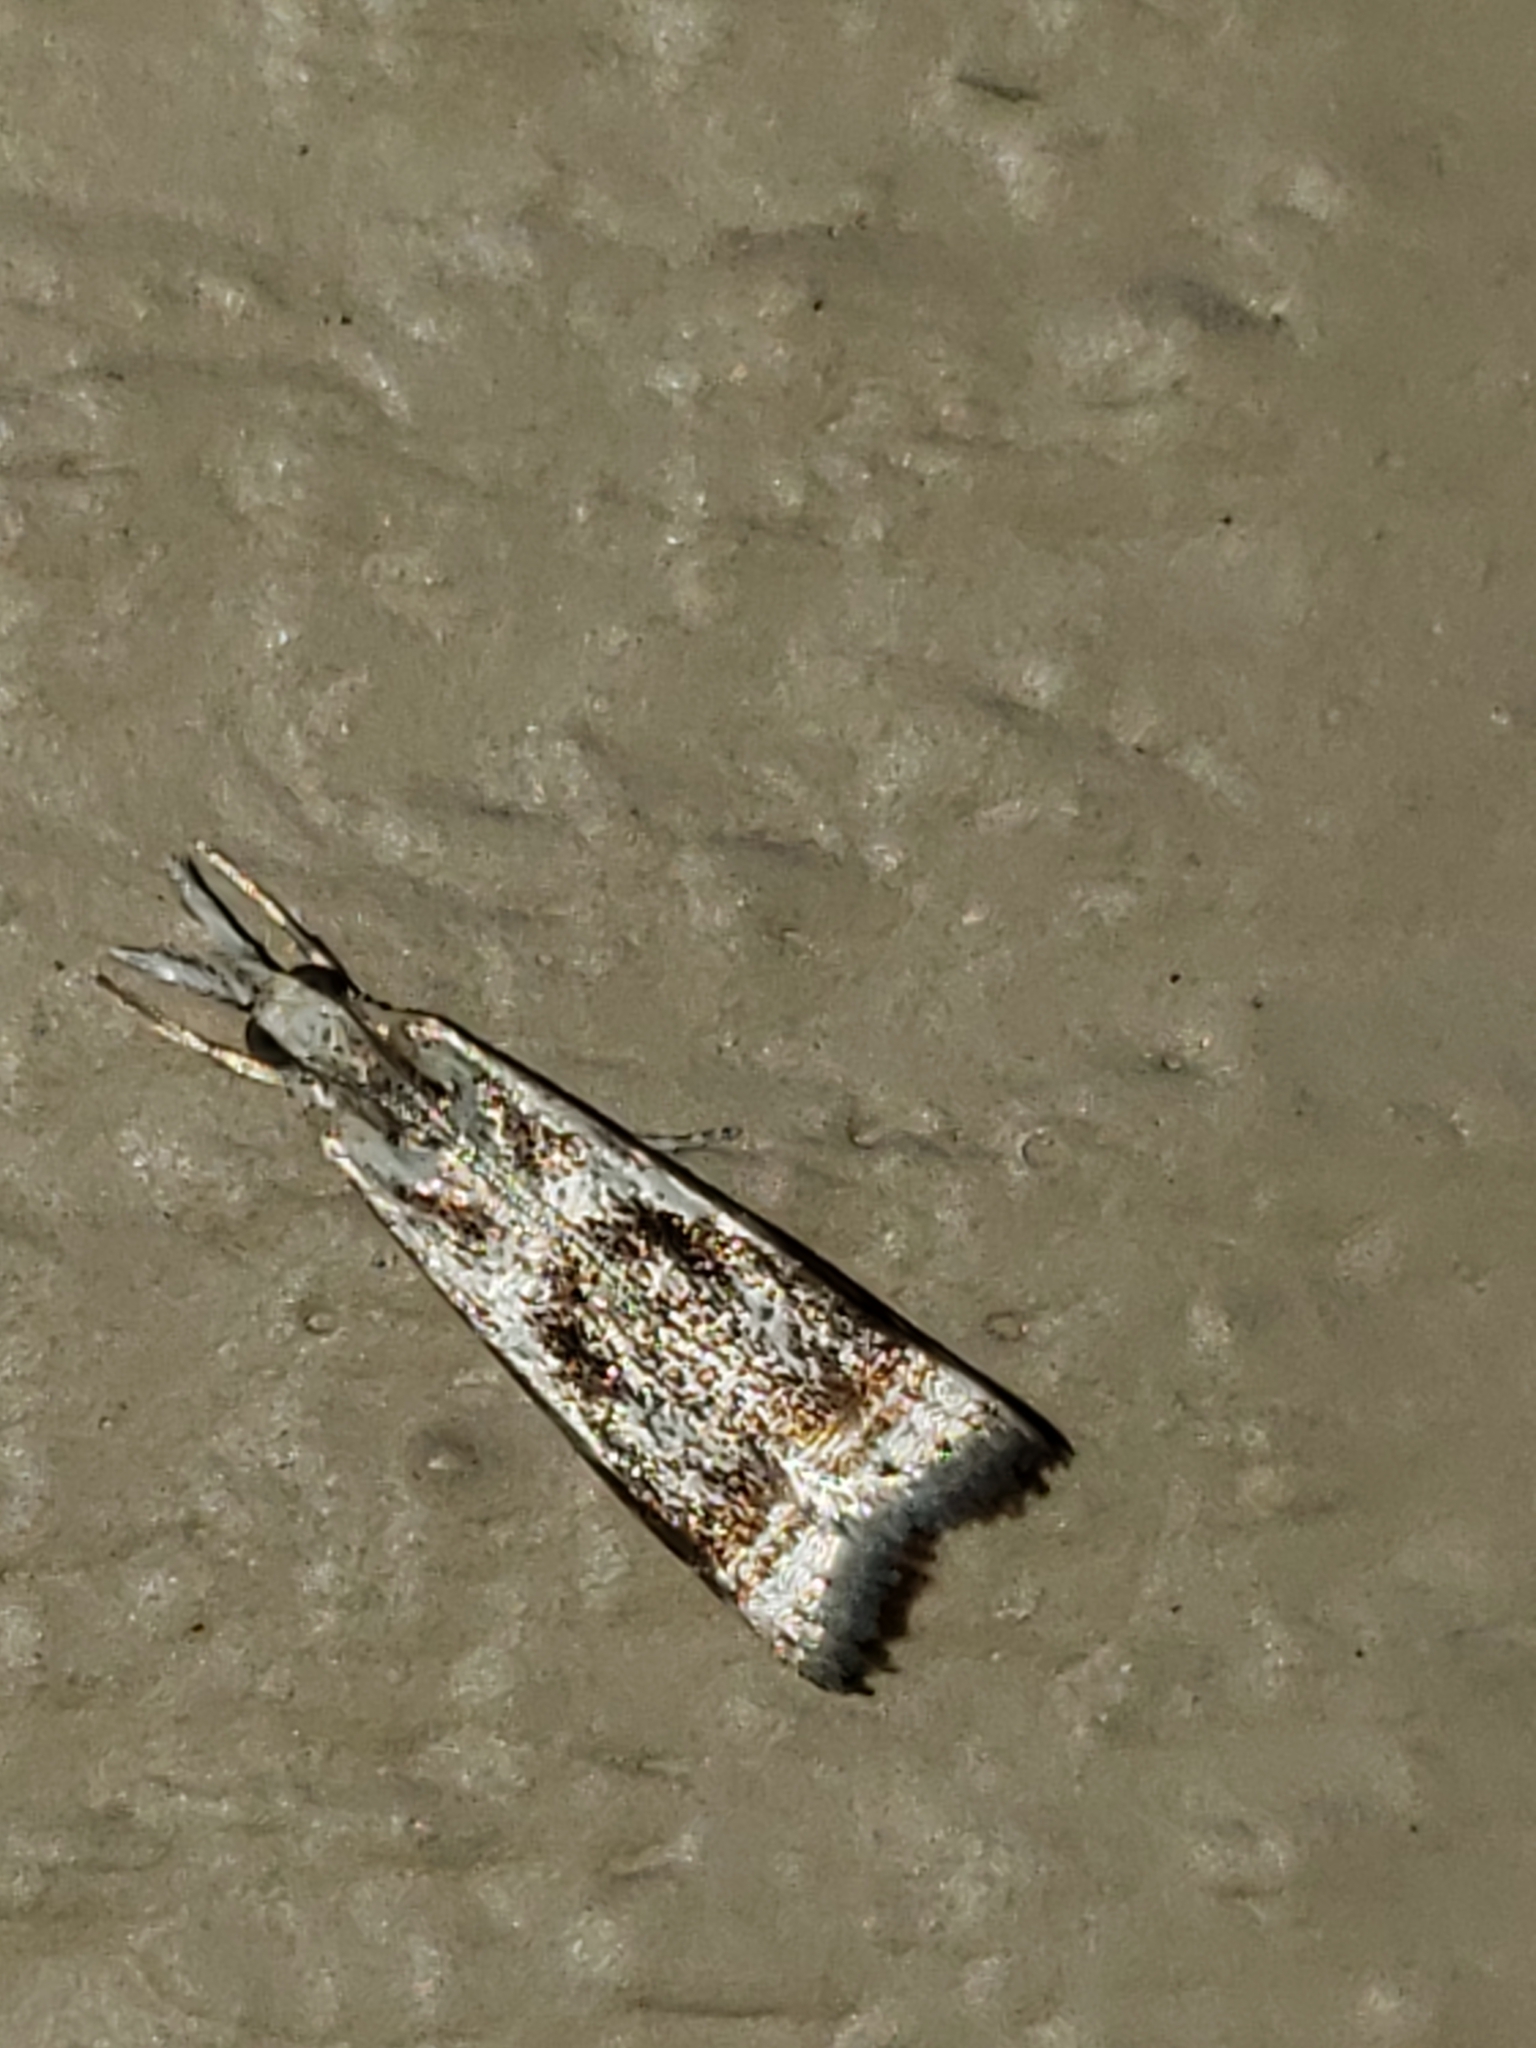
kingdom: Animalia
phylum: Arthropoda
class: Insecta
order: Lepidoptera
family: Crambidae
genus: Microcrambus
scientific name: Microcrambus elegans
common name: Elegant grass-veneer
